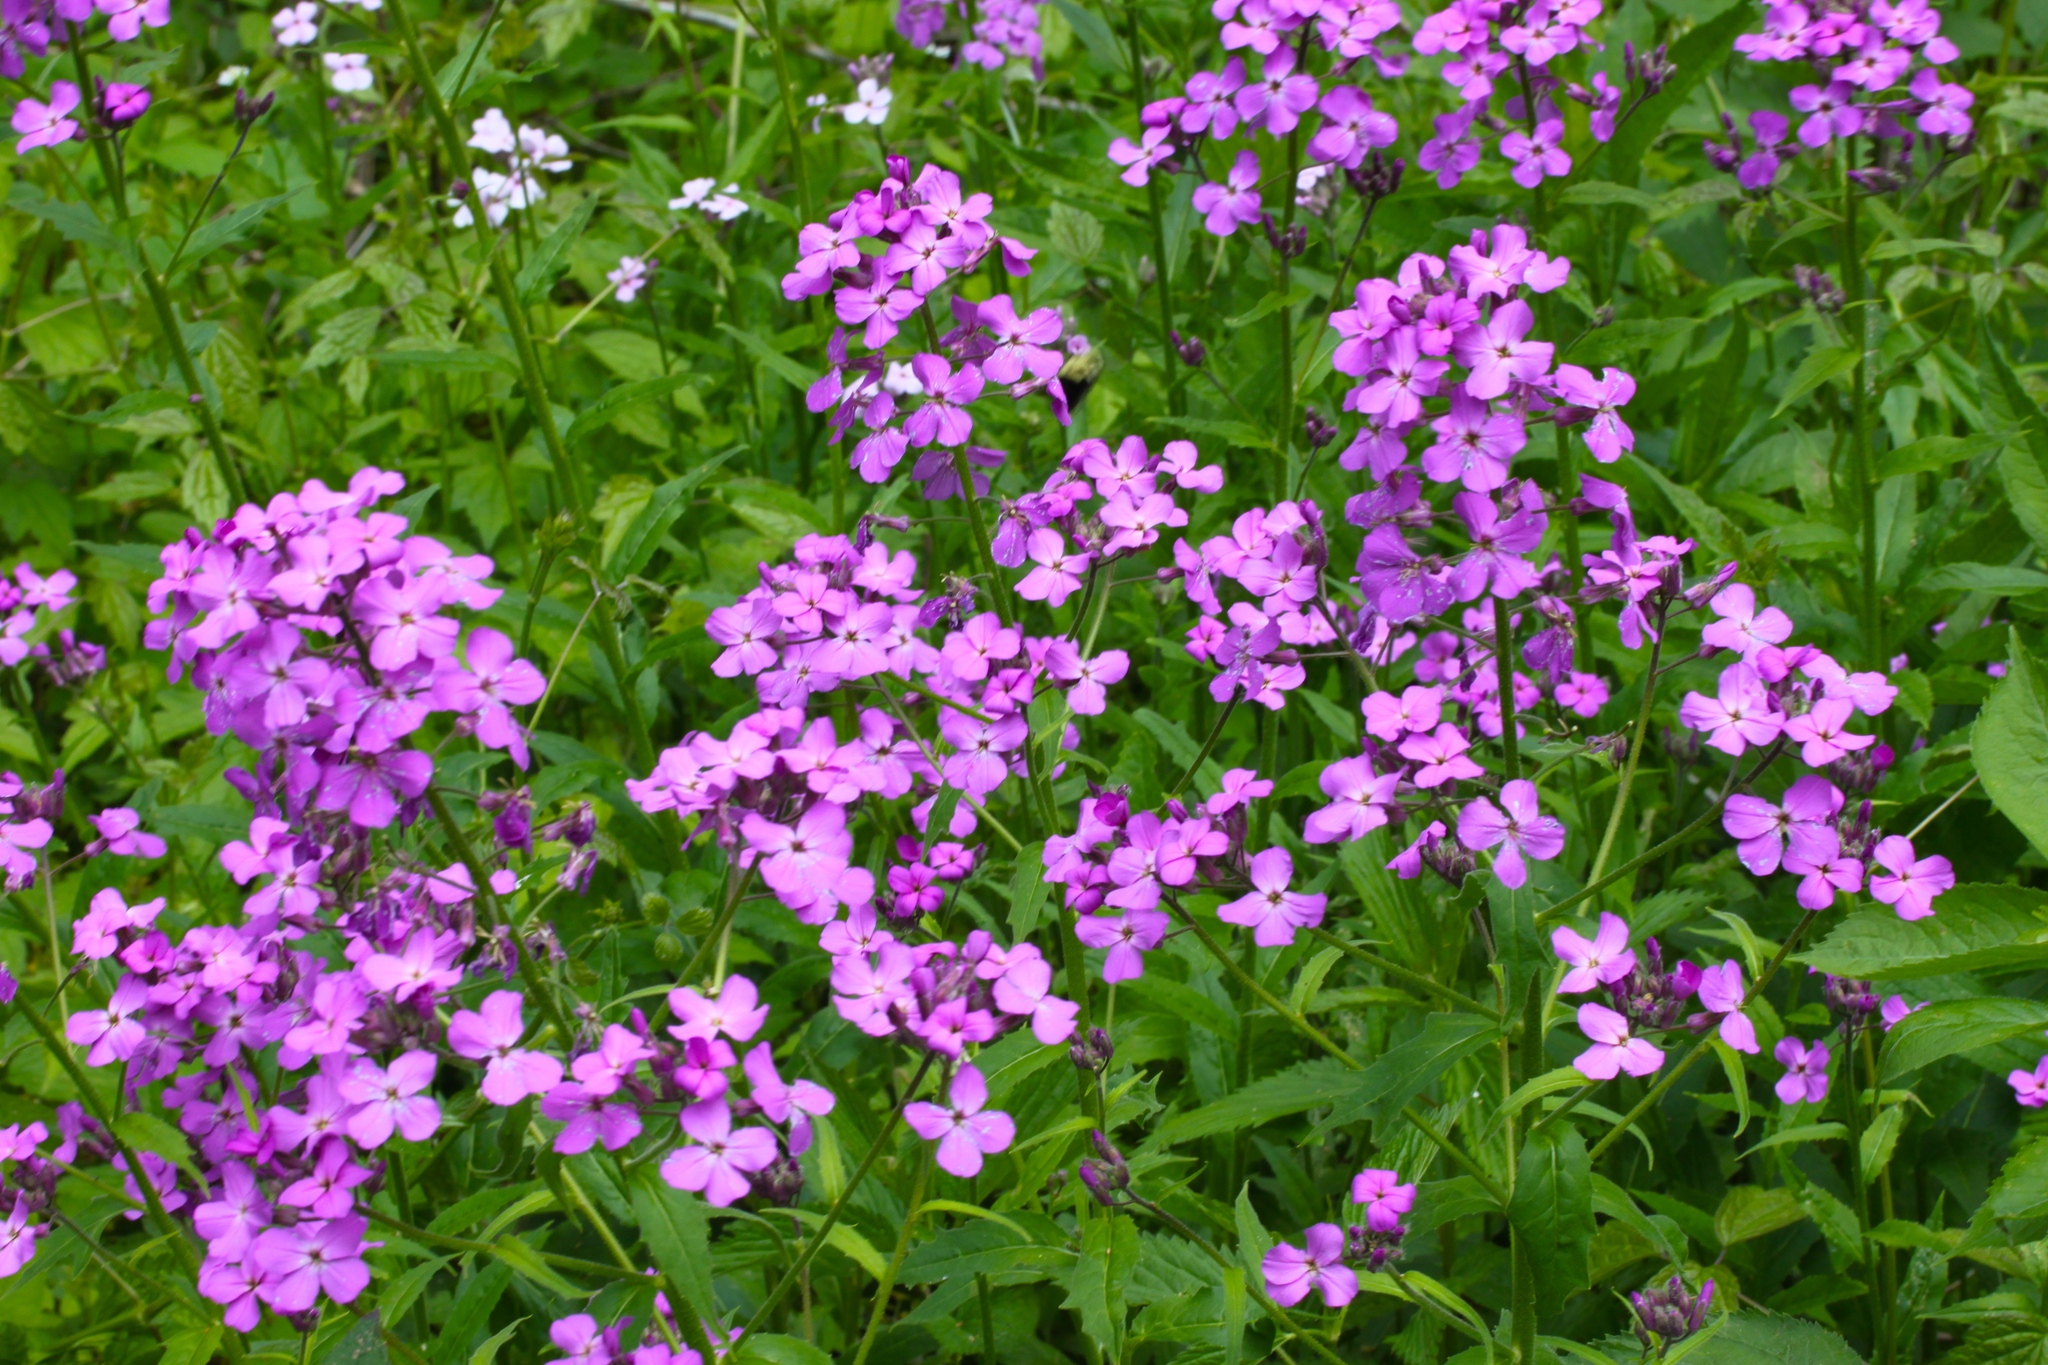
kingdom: Plantae
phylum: Tracheophyta
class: Magnoliopsida
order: Brassicales
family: Brassicaceae
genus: Hesperis
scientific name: Hesperis matronalis
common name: Dame's-violet
